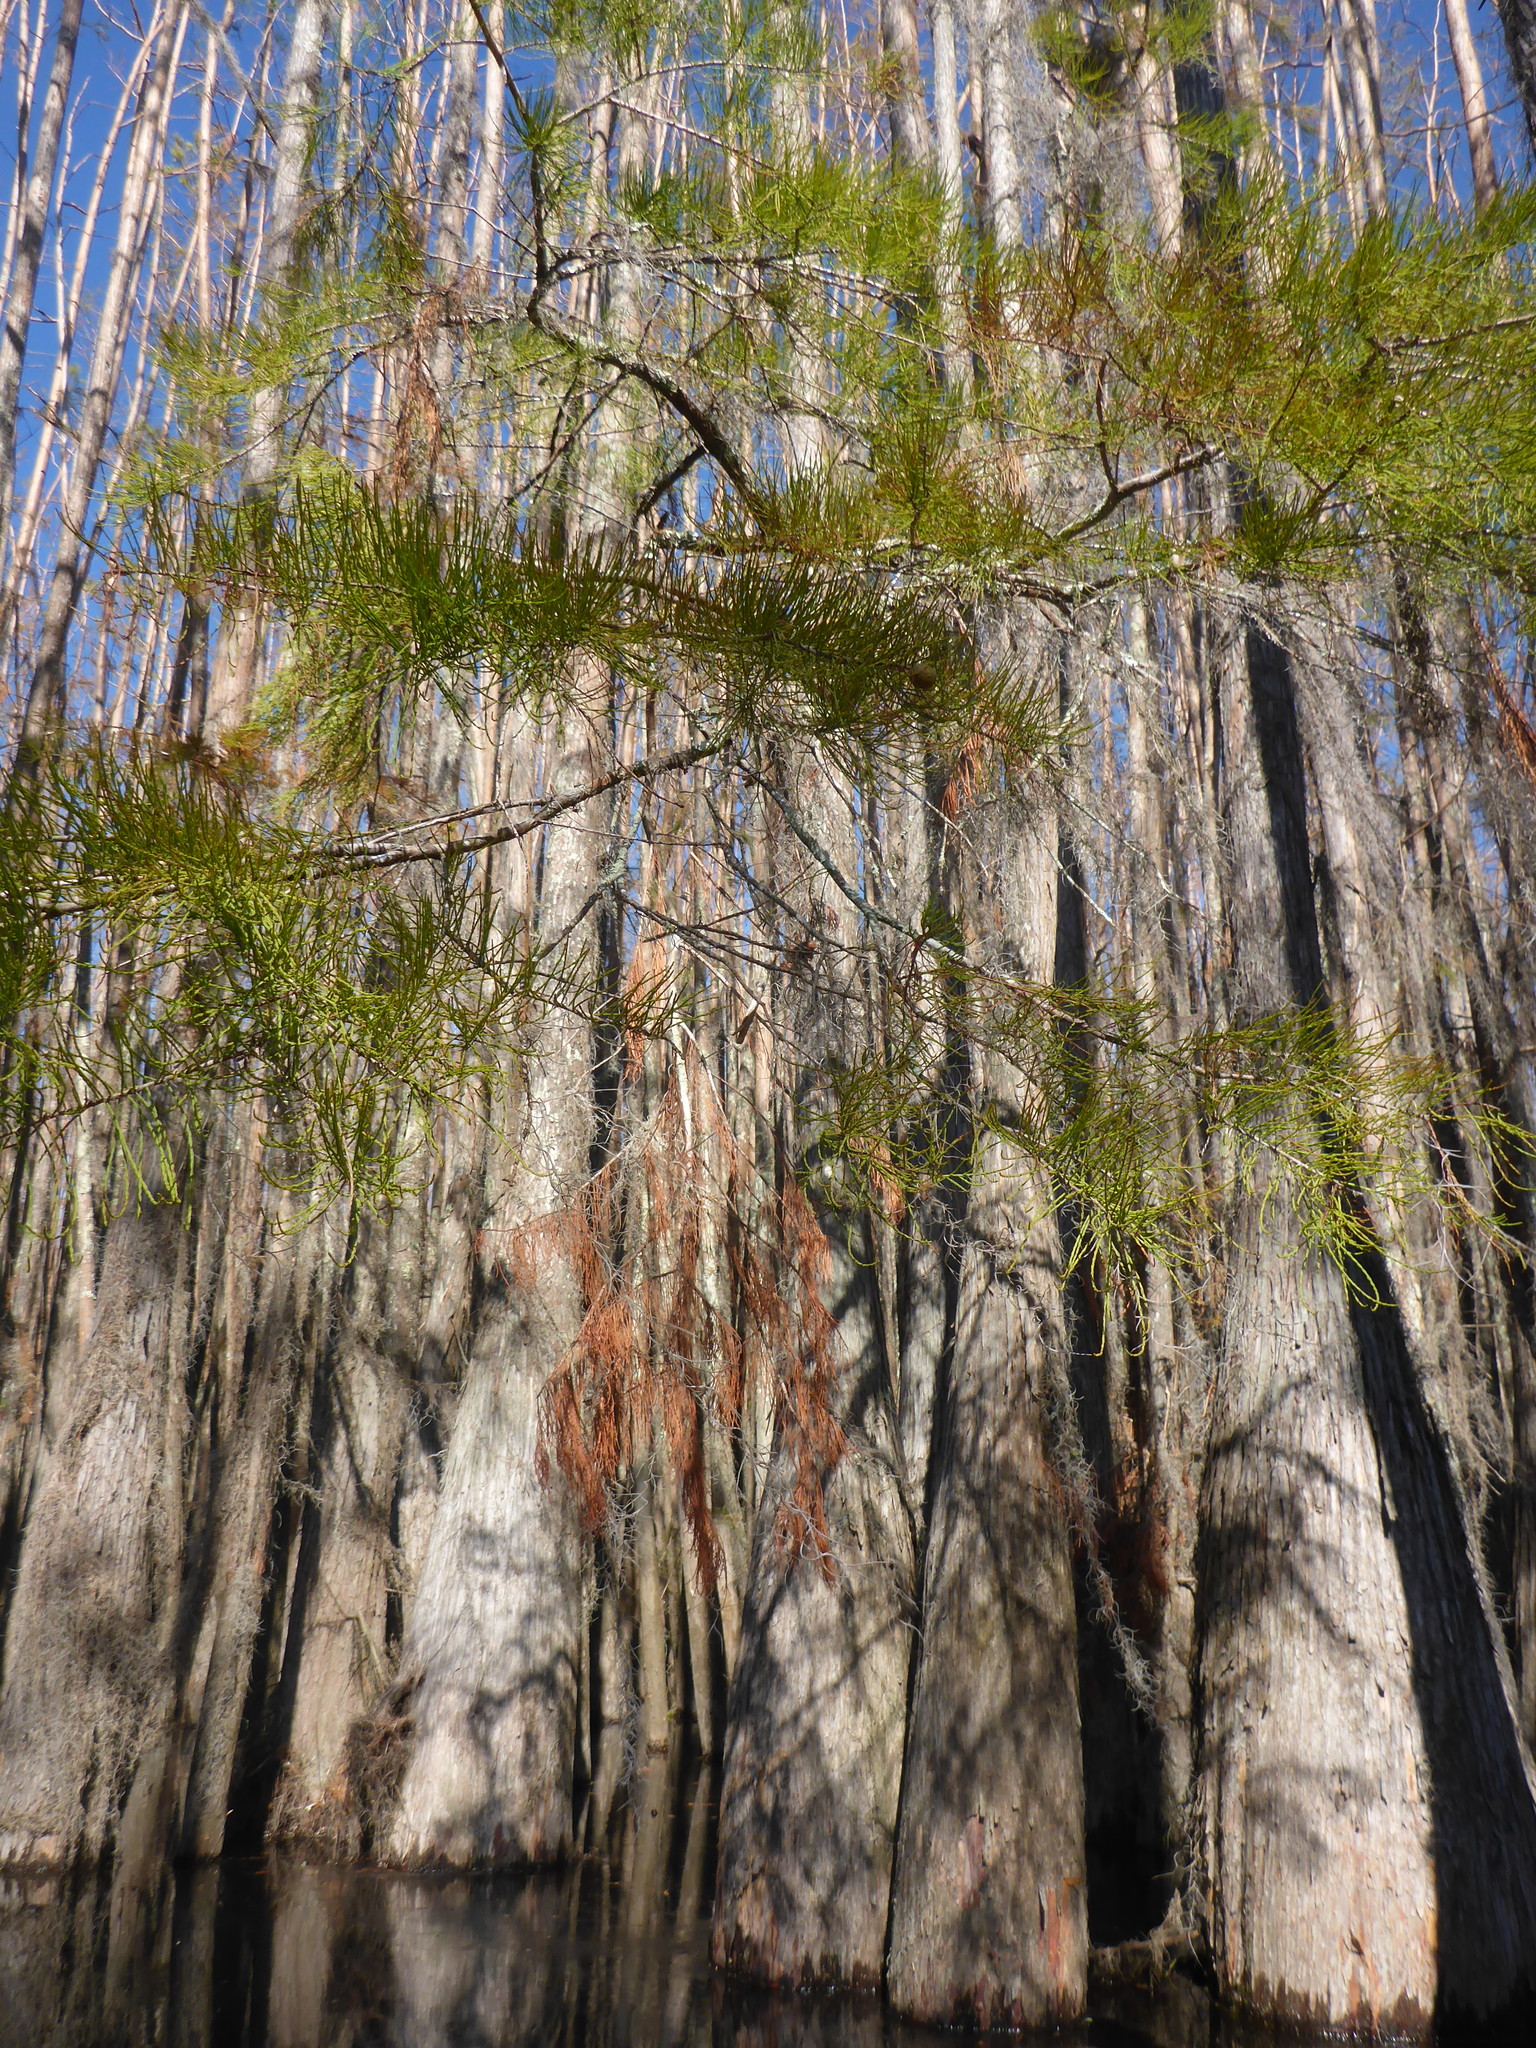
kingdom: Plantae
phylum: Tracheophyta
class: Pinopsida
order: Pinales
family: Cupressaceae
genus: Taxodium
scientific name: Taxodium distichum
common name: Bald cypress
